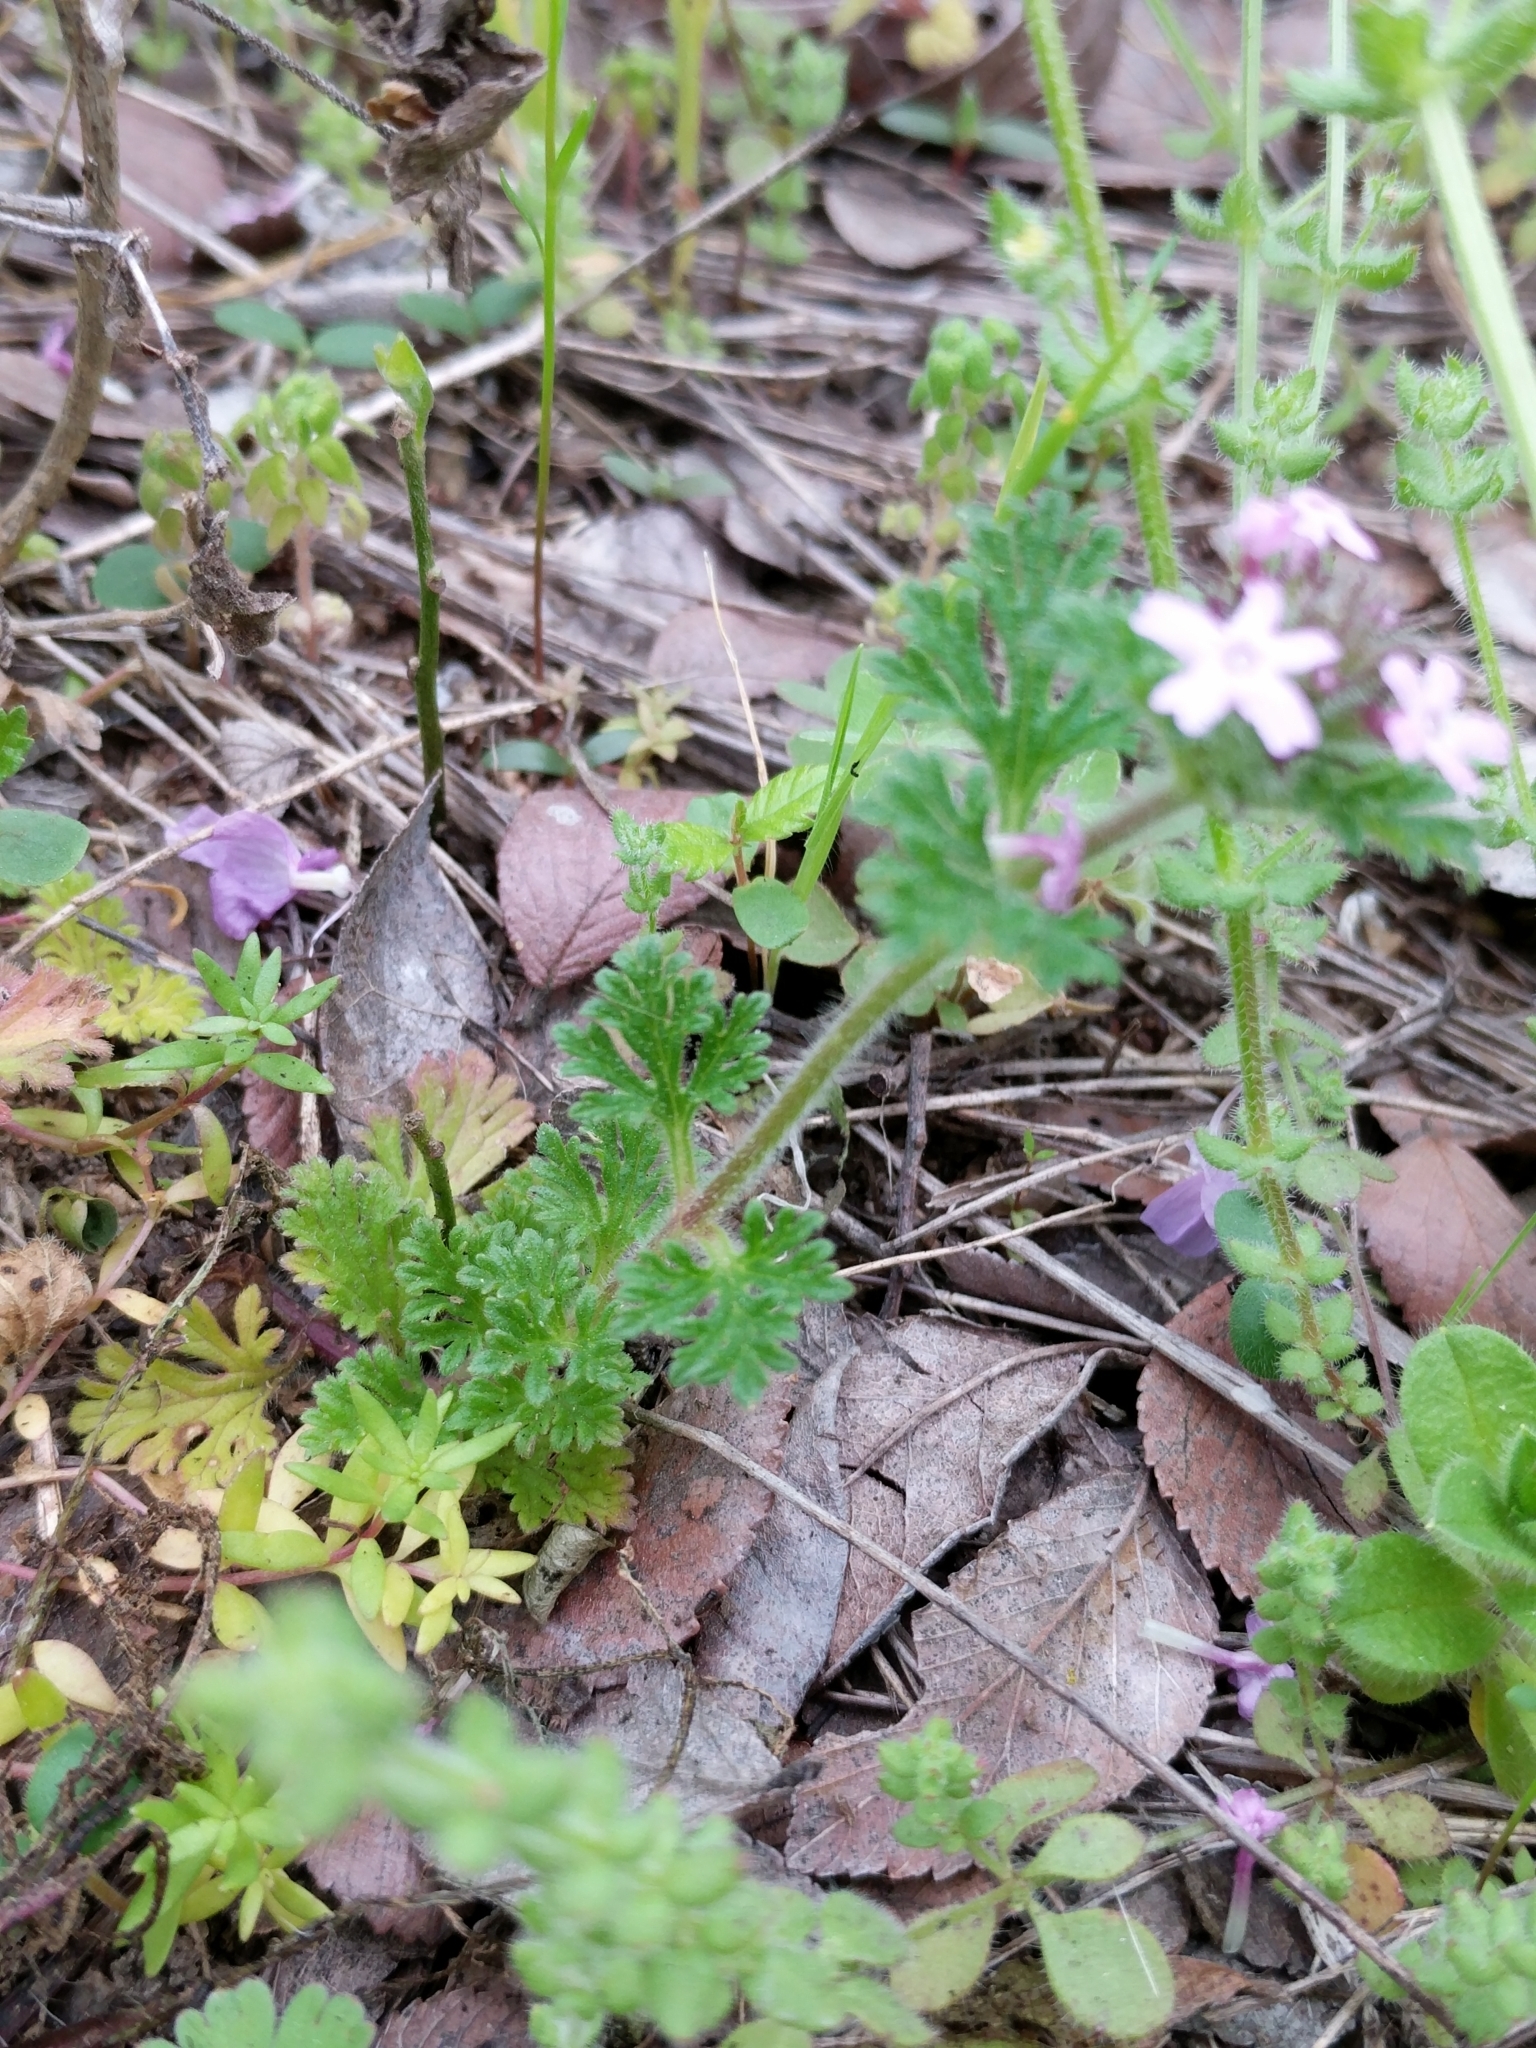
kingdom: Plantae
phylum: Tracheophyta
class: Magnoliopsida
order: Lamiales
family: Verbenaceae
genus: Verbena
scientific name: Verbena pumila
